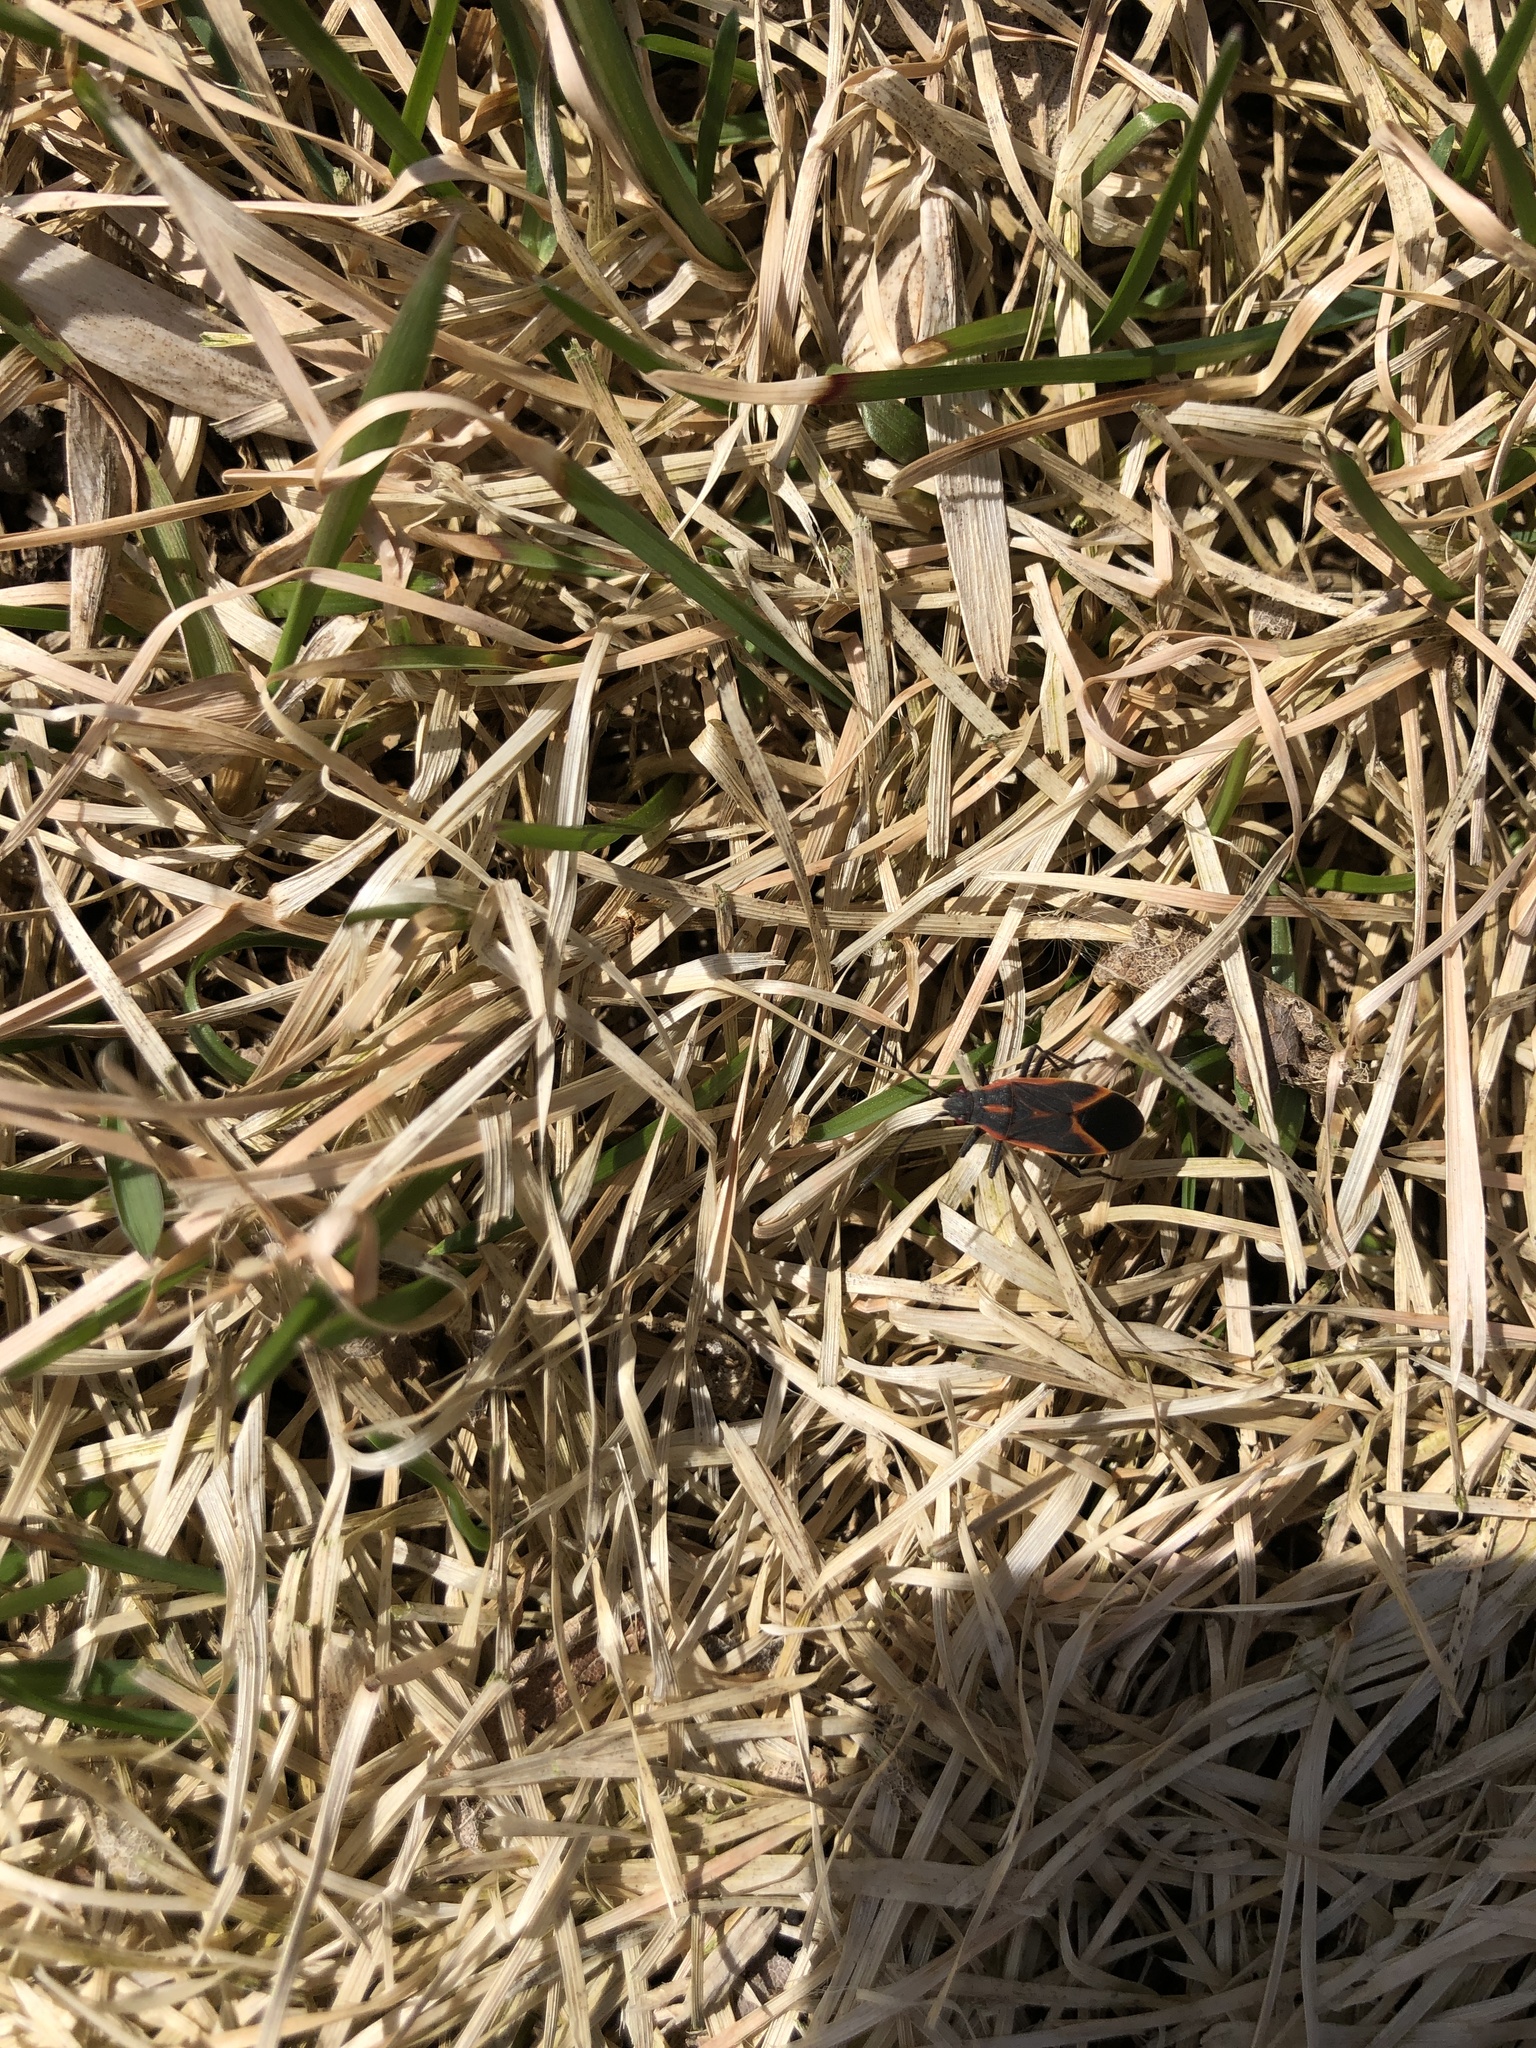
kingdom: Animalia
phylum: Arthropoda
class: Insecta
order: Hemiptera
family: Rhopalidae
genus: Boisea
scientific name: Boisea trivittata
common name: Boxelder bug
